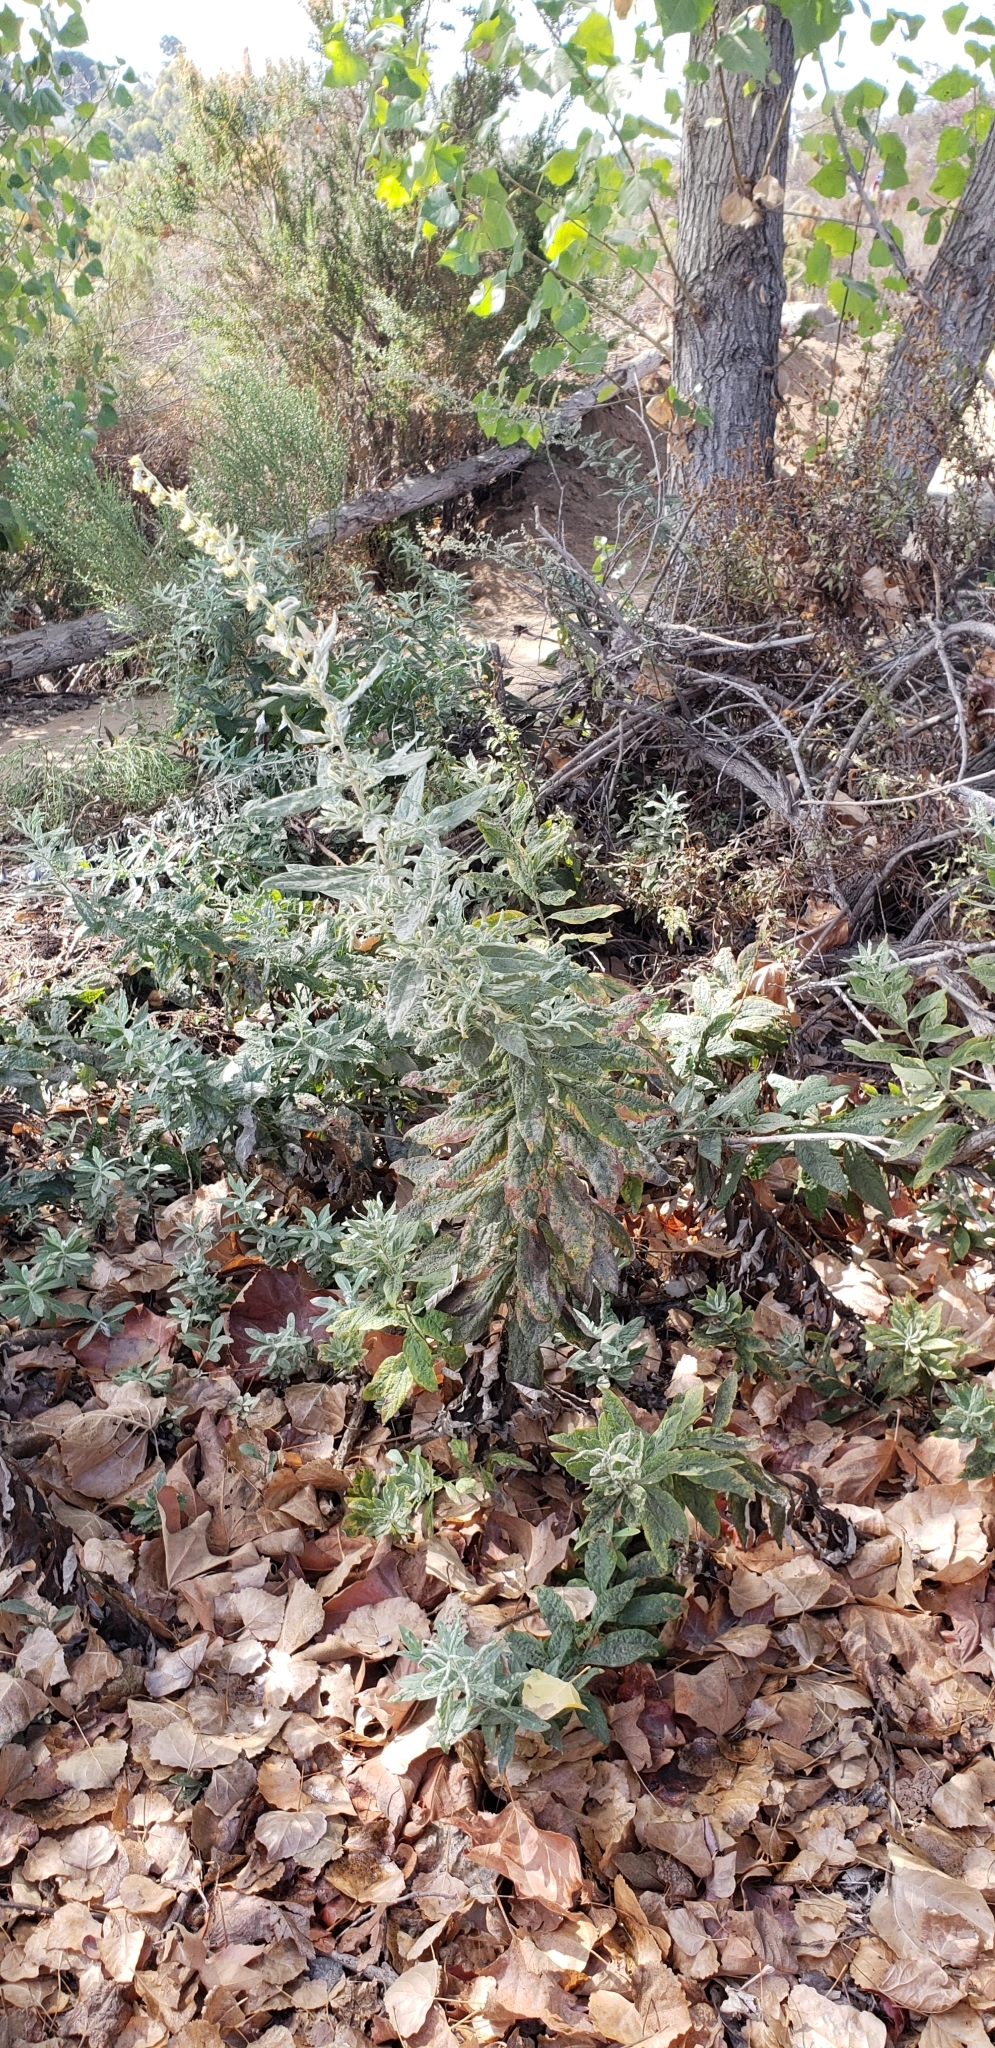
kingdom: Plantae
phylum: Tracheophyta
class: Magnoliopsida
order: Asterales
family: Asteraceae
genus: Artemisia
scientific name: Artemisia douglasiana
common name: Northwest mugwort
